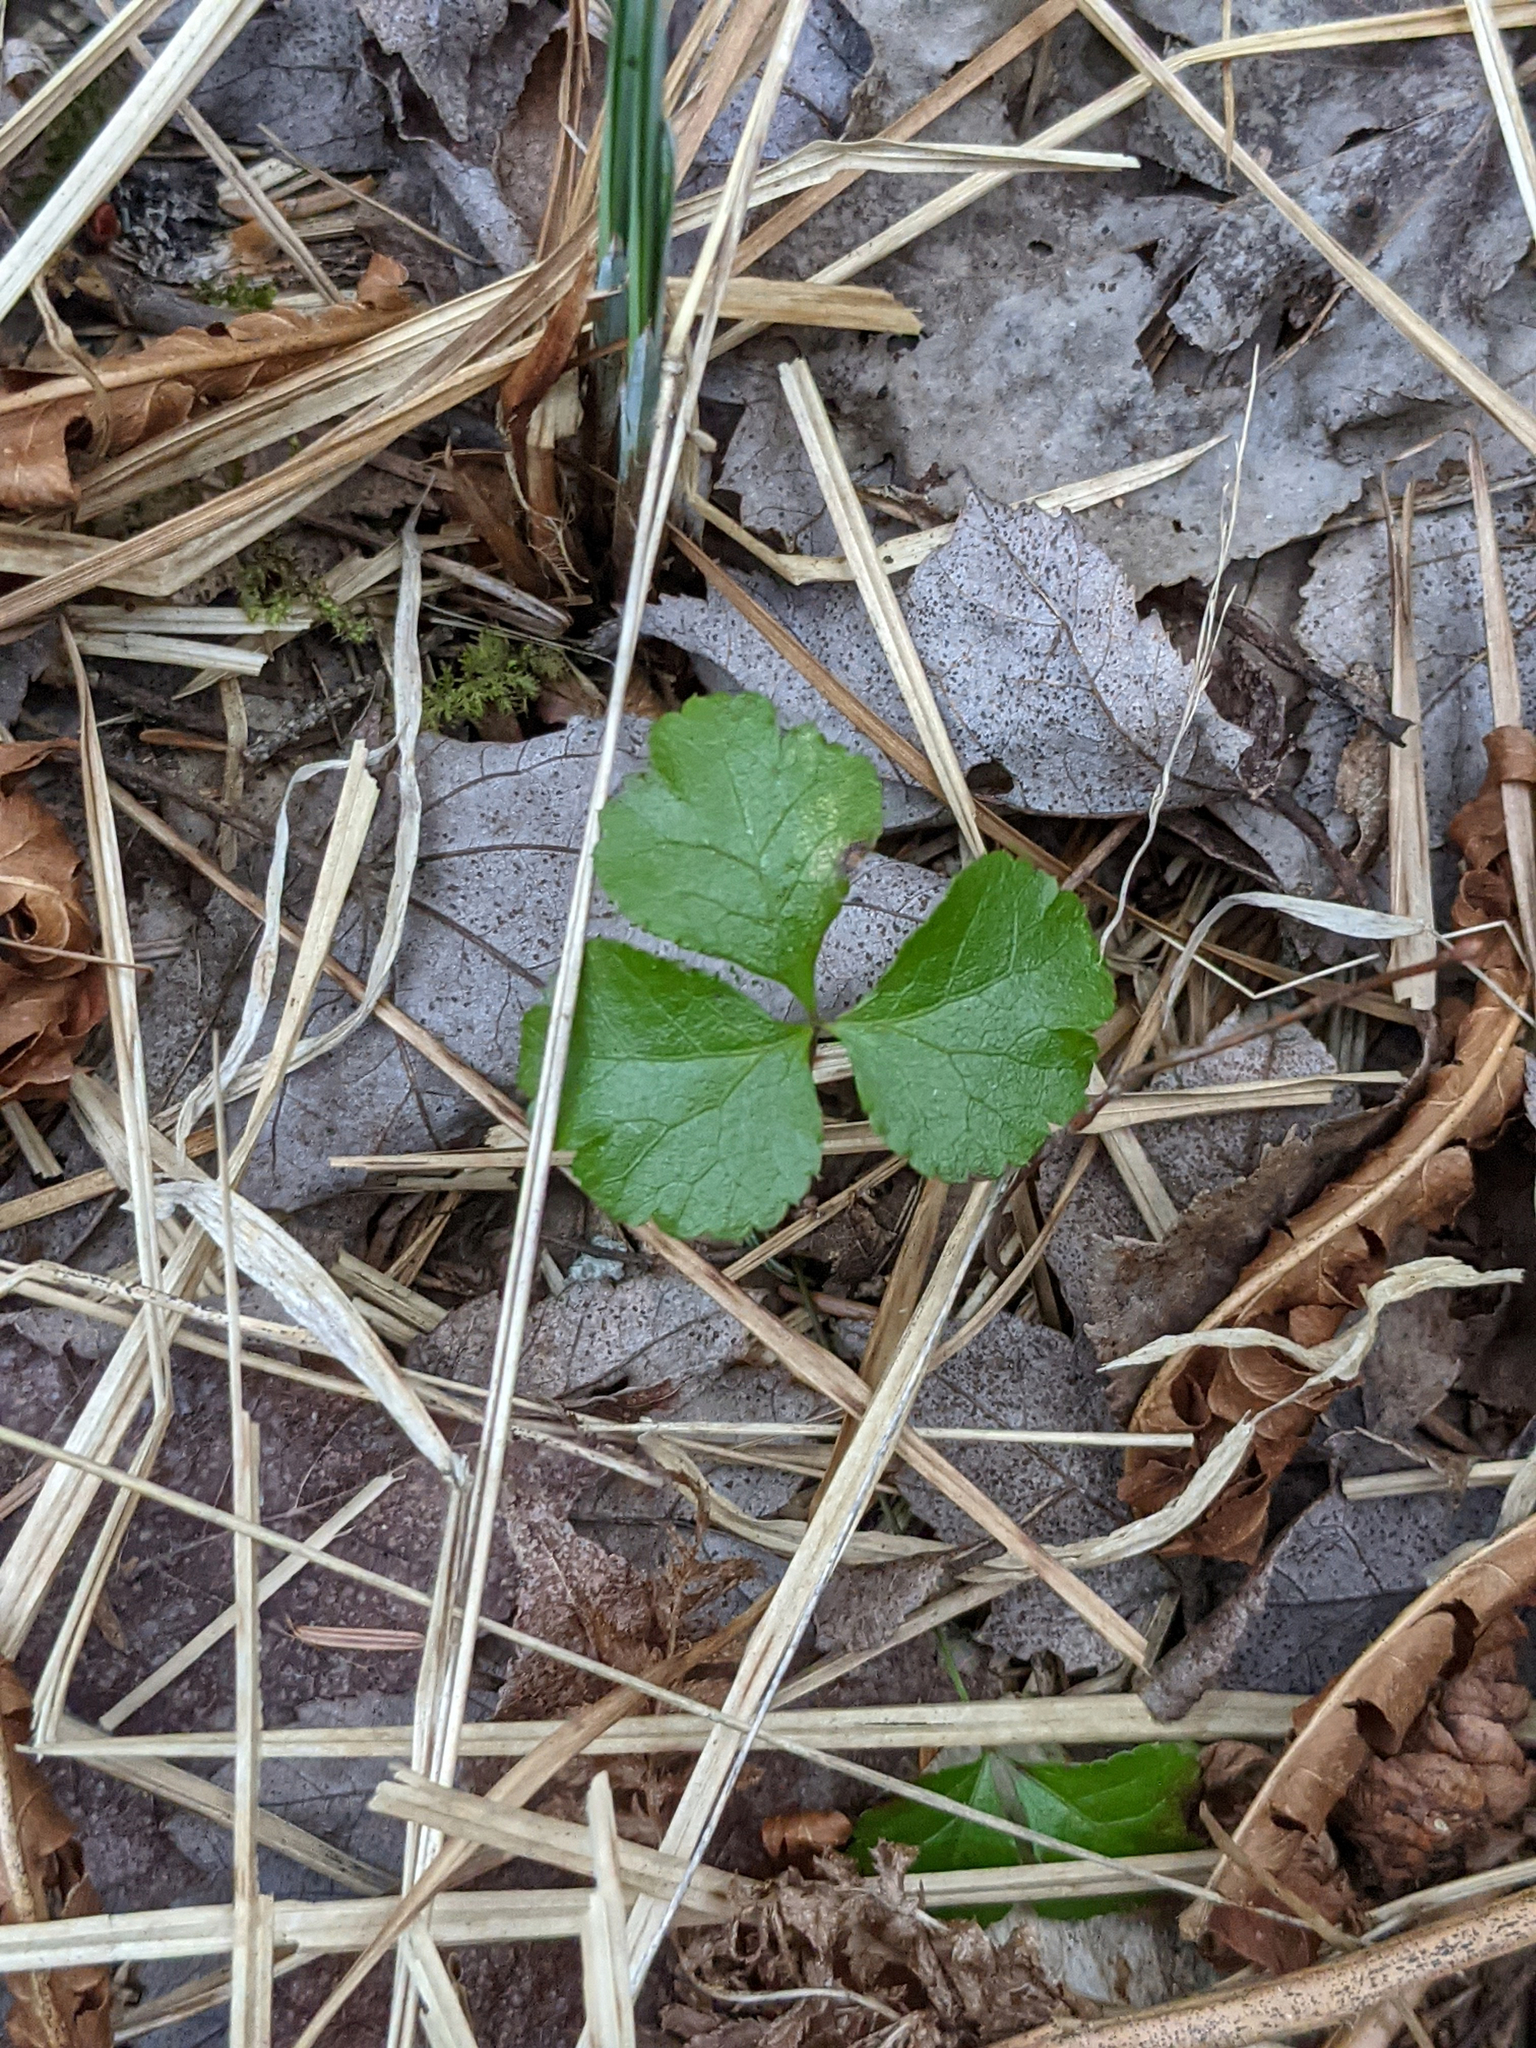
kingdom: Plantae
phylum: Tracheophyta
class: Magnoliopsida
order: Ranunculales
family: Ranunculaceae
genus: Coptis
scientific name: Coptis trifolia
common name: Canker-root
